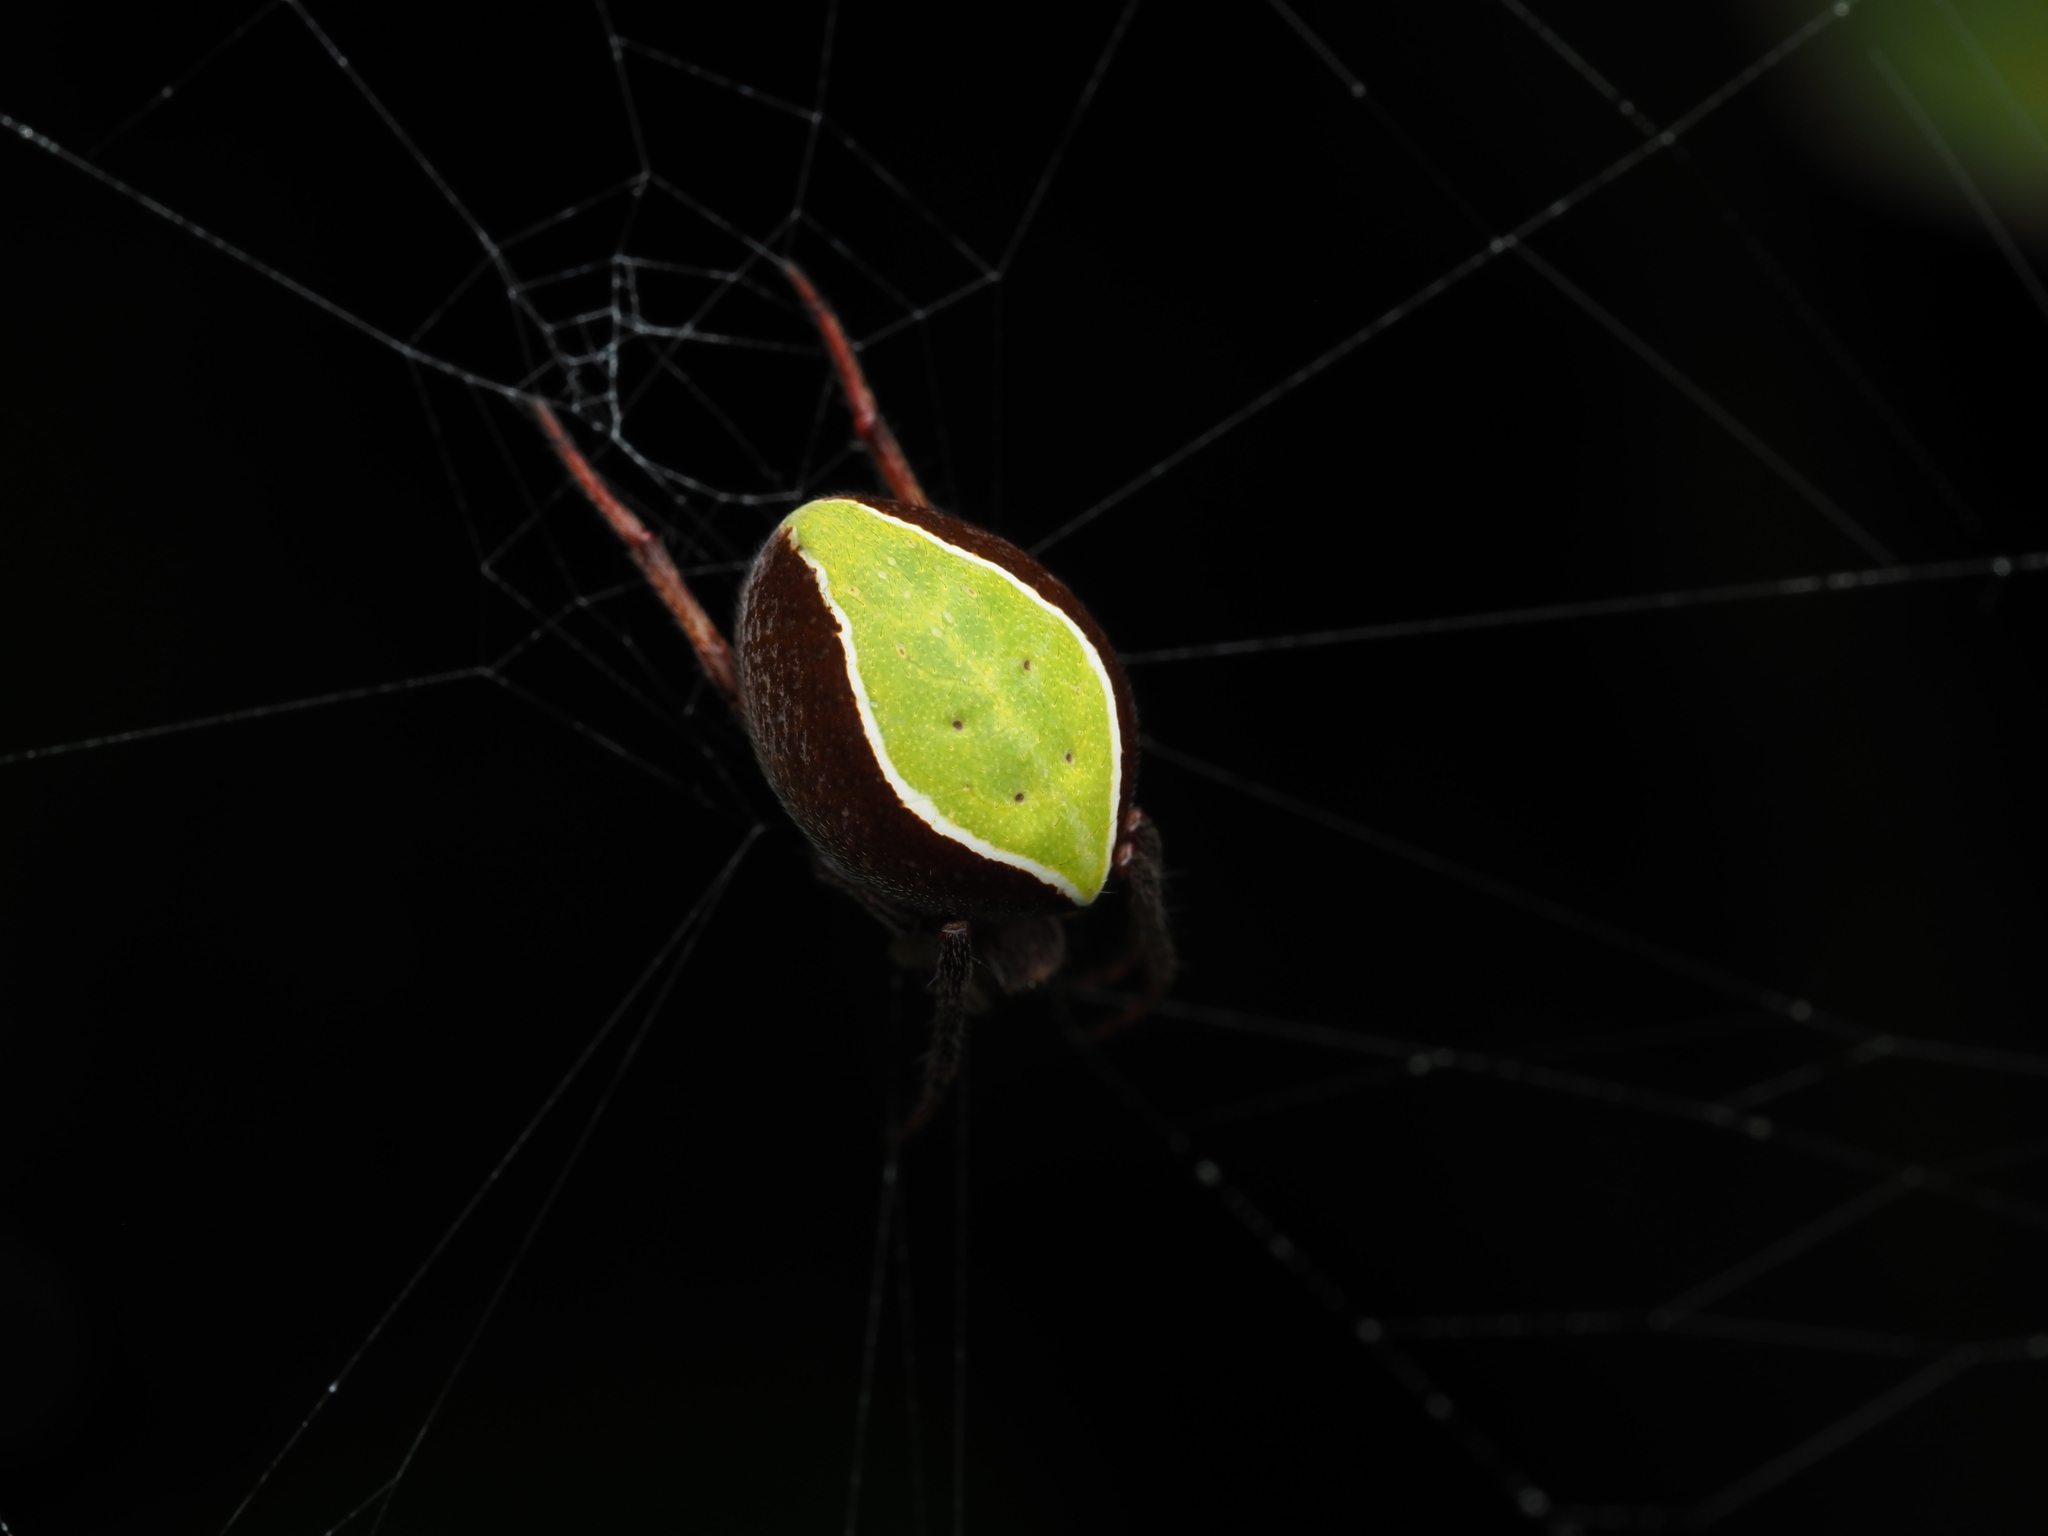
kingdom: Animalia
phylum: Arthropoda
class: Arachnida
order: Araneae
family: Araneidae
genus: Colaranea
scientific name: Colaranea viriditas
